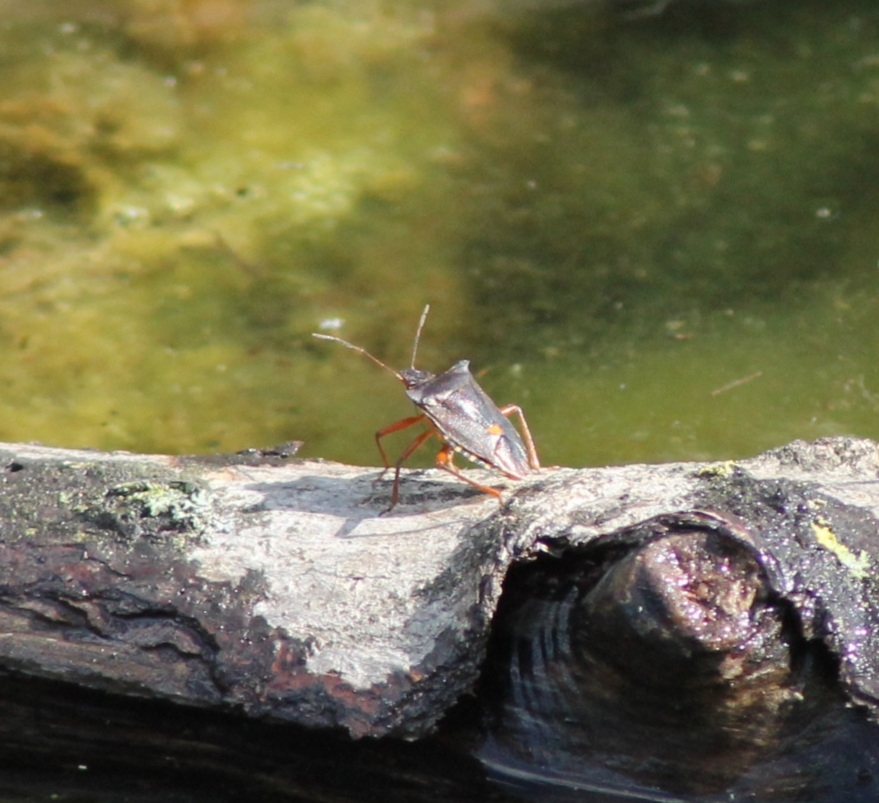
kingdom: Animalia
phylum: Arthropoda
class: Insecta
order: Hemiptera
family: Pentatomidae
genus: Pentatoma
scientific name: Pentatoma rufipes
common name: Forest bug
